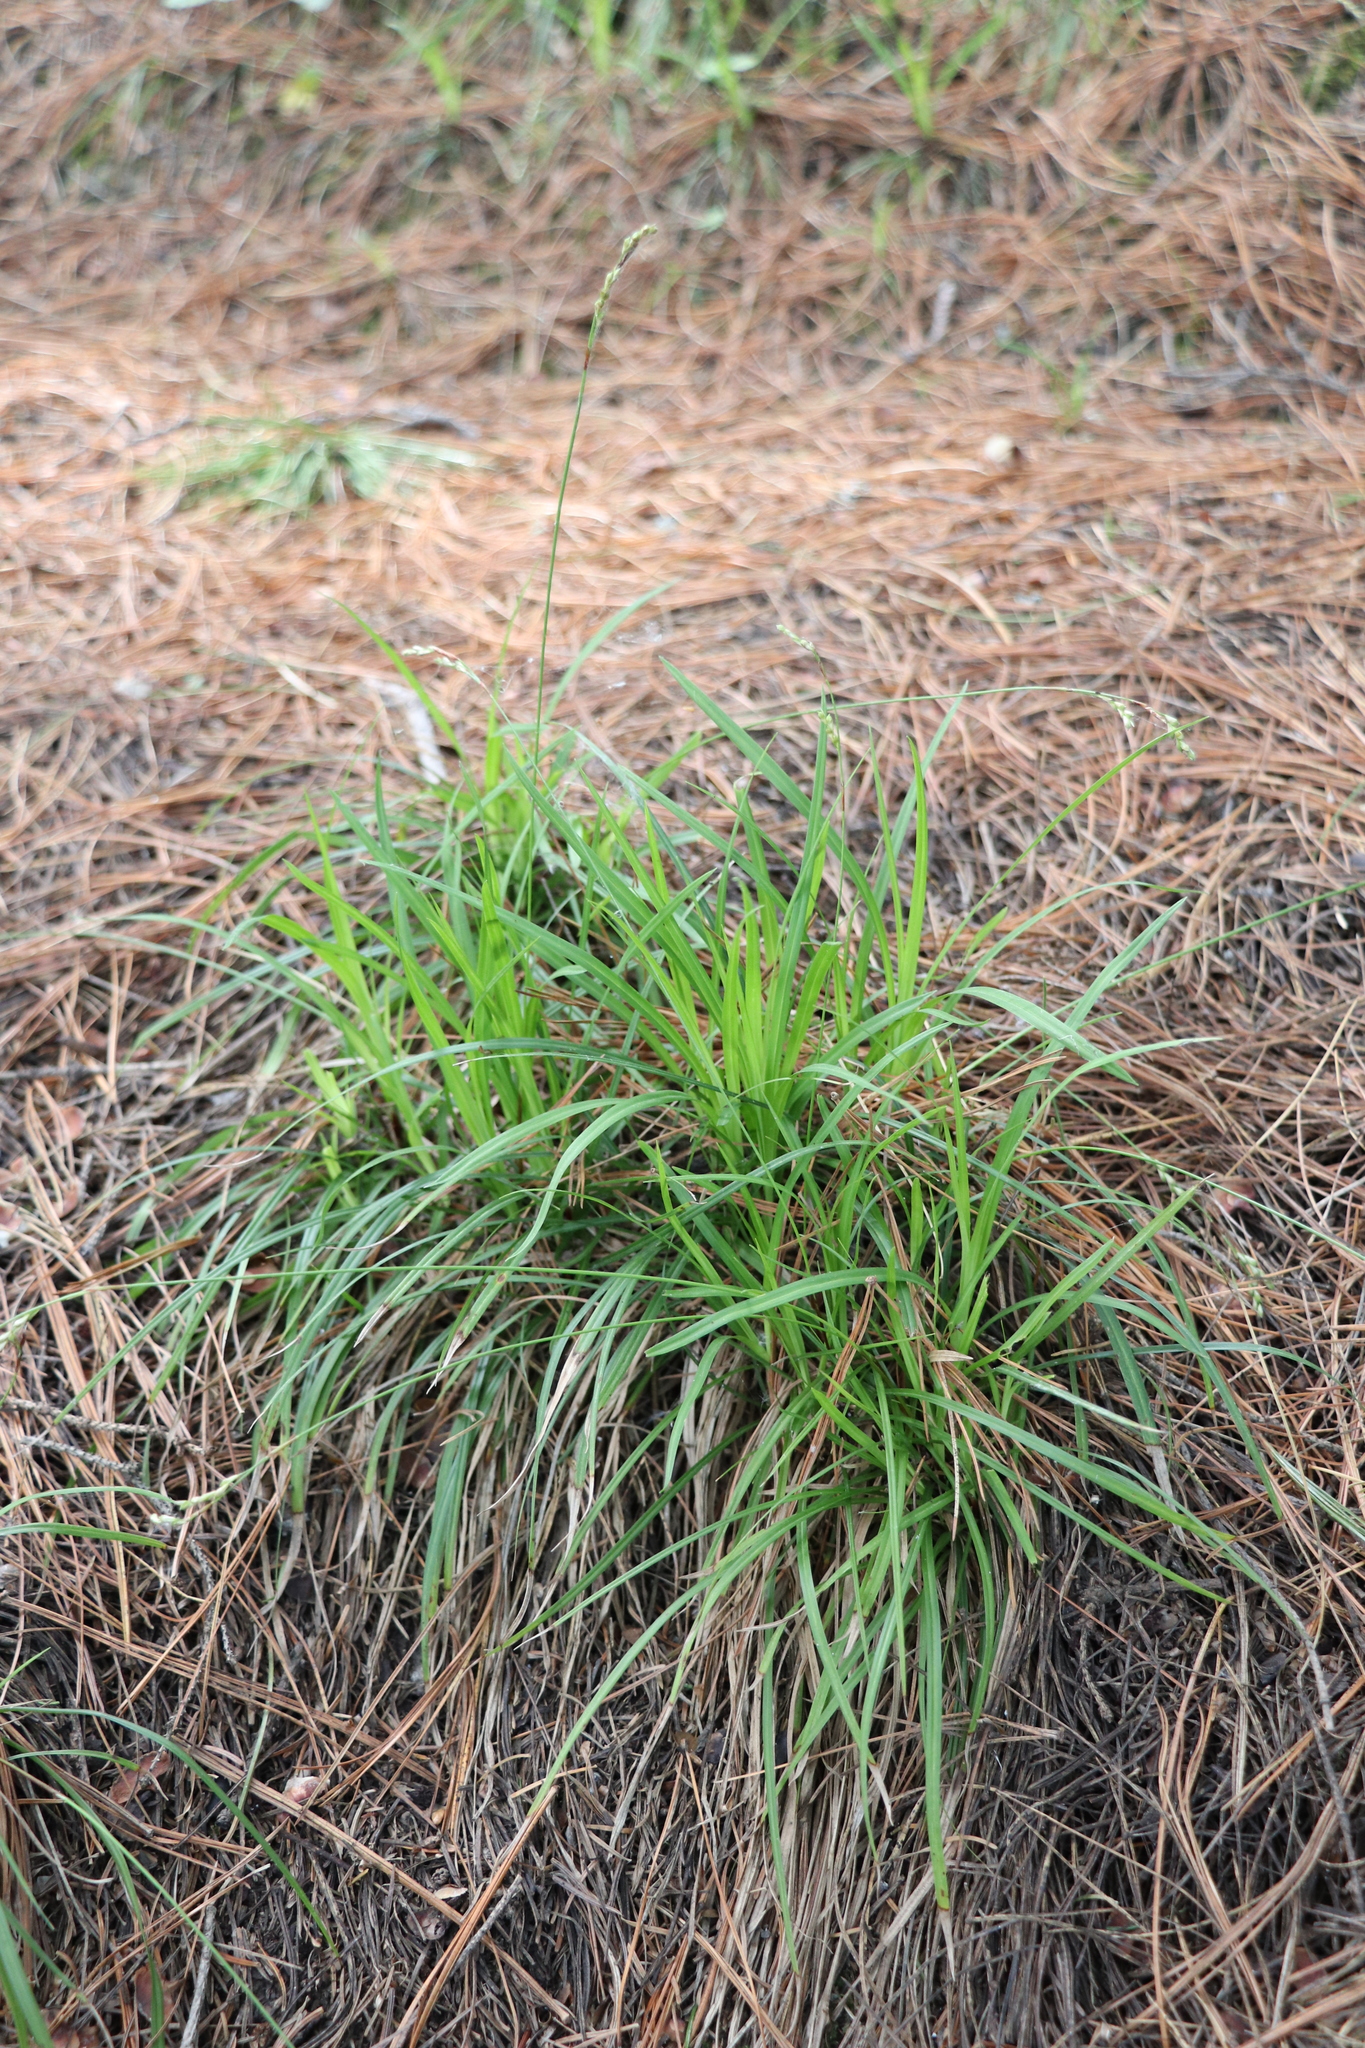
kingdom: Plantae
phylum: Tracheophyta
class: Liliopsida
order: Poales
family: Cyperaceae
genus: Carex
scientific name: Carex digitata
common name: Fingered sedge
